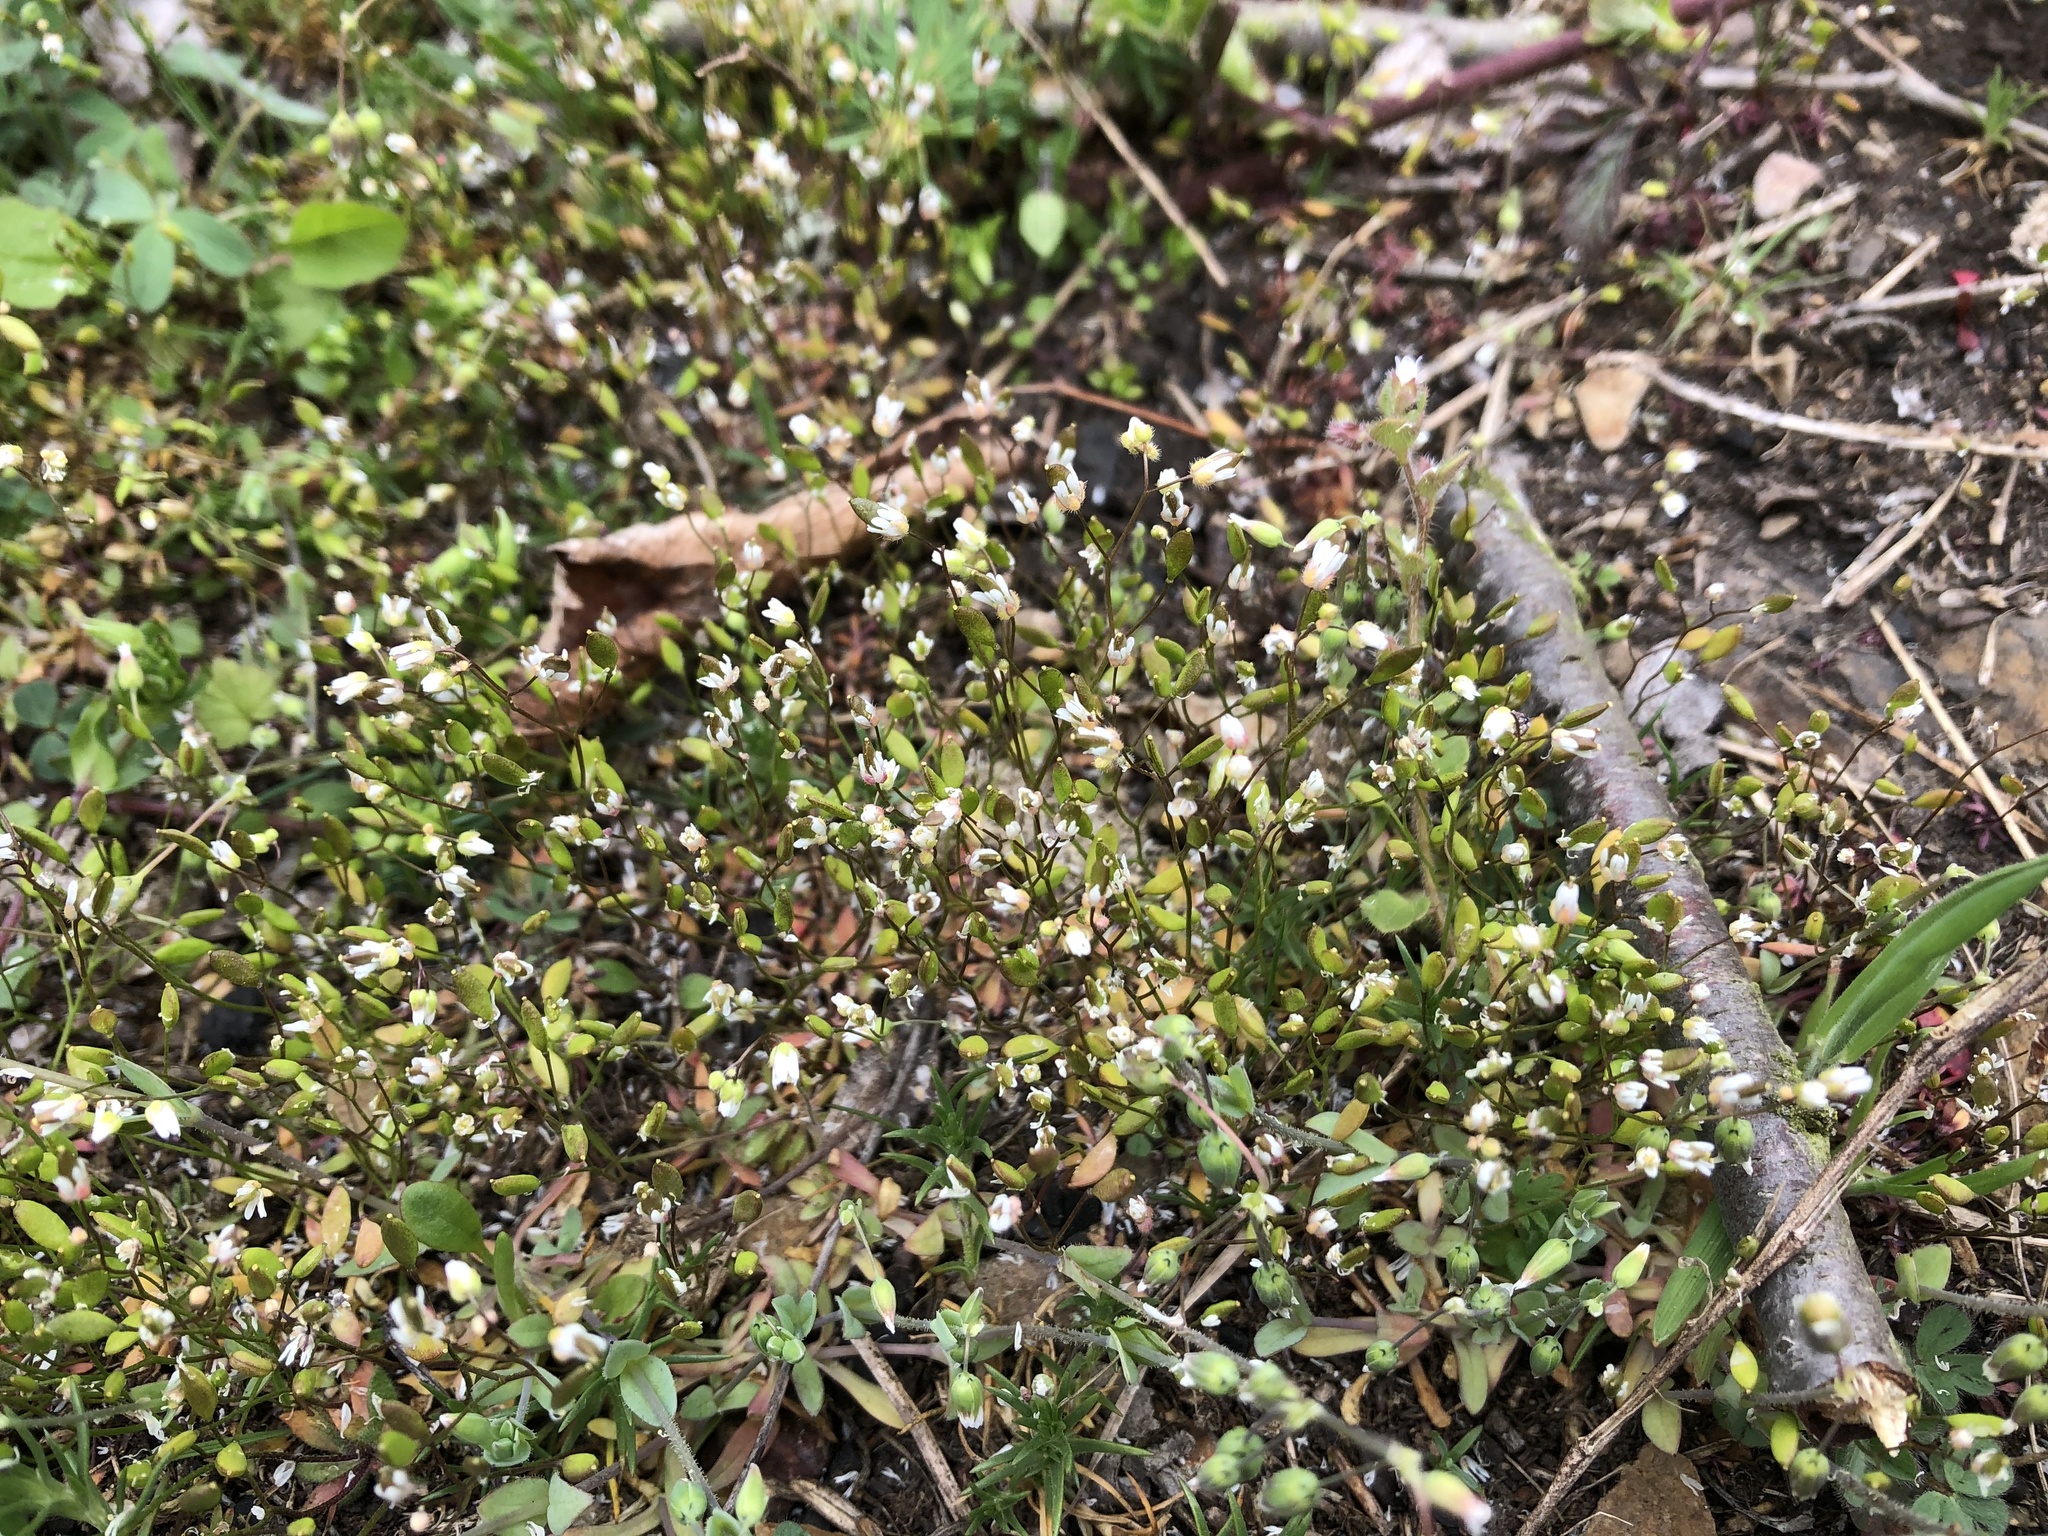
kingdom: Plantae
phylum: Tracheophyta
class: Magnoliopsida
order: Brassicales
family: Brassicaceae
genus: Draba
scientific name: Draba verna
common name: Spring draba
